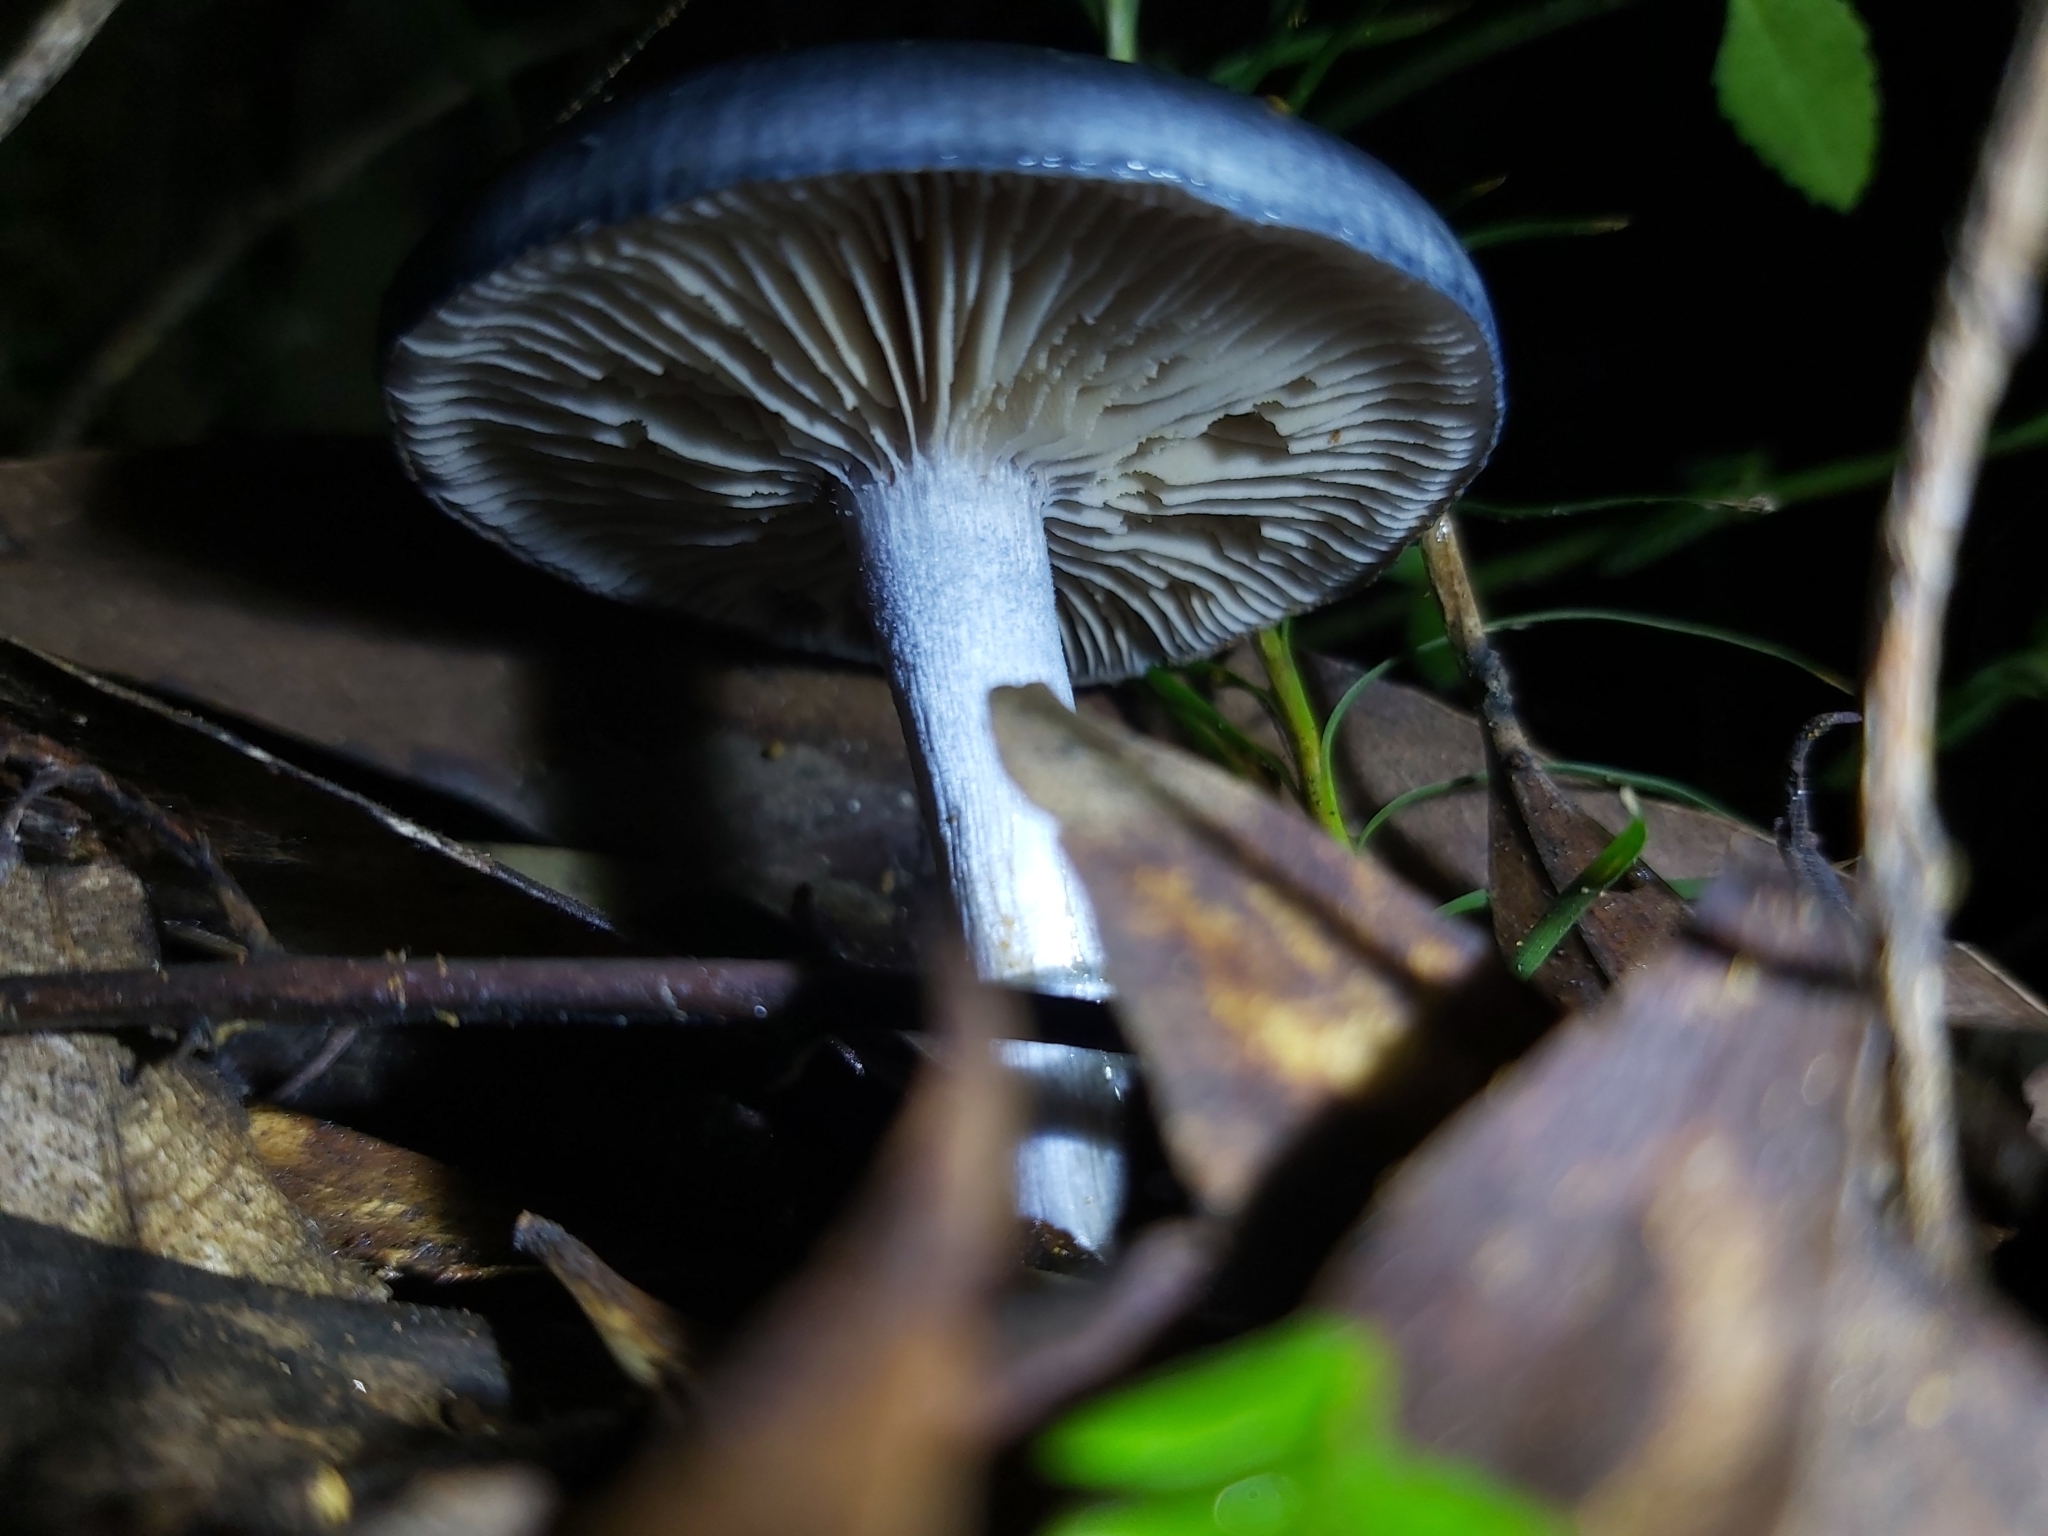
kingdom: Fungi
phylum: Basidiomycota
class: Agaricomycetes
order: Agaricales
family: Cortinariaceae
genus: Cortinarius
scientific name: Cortinarius rotundisporus
